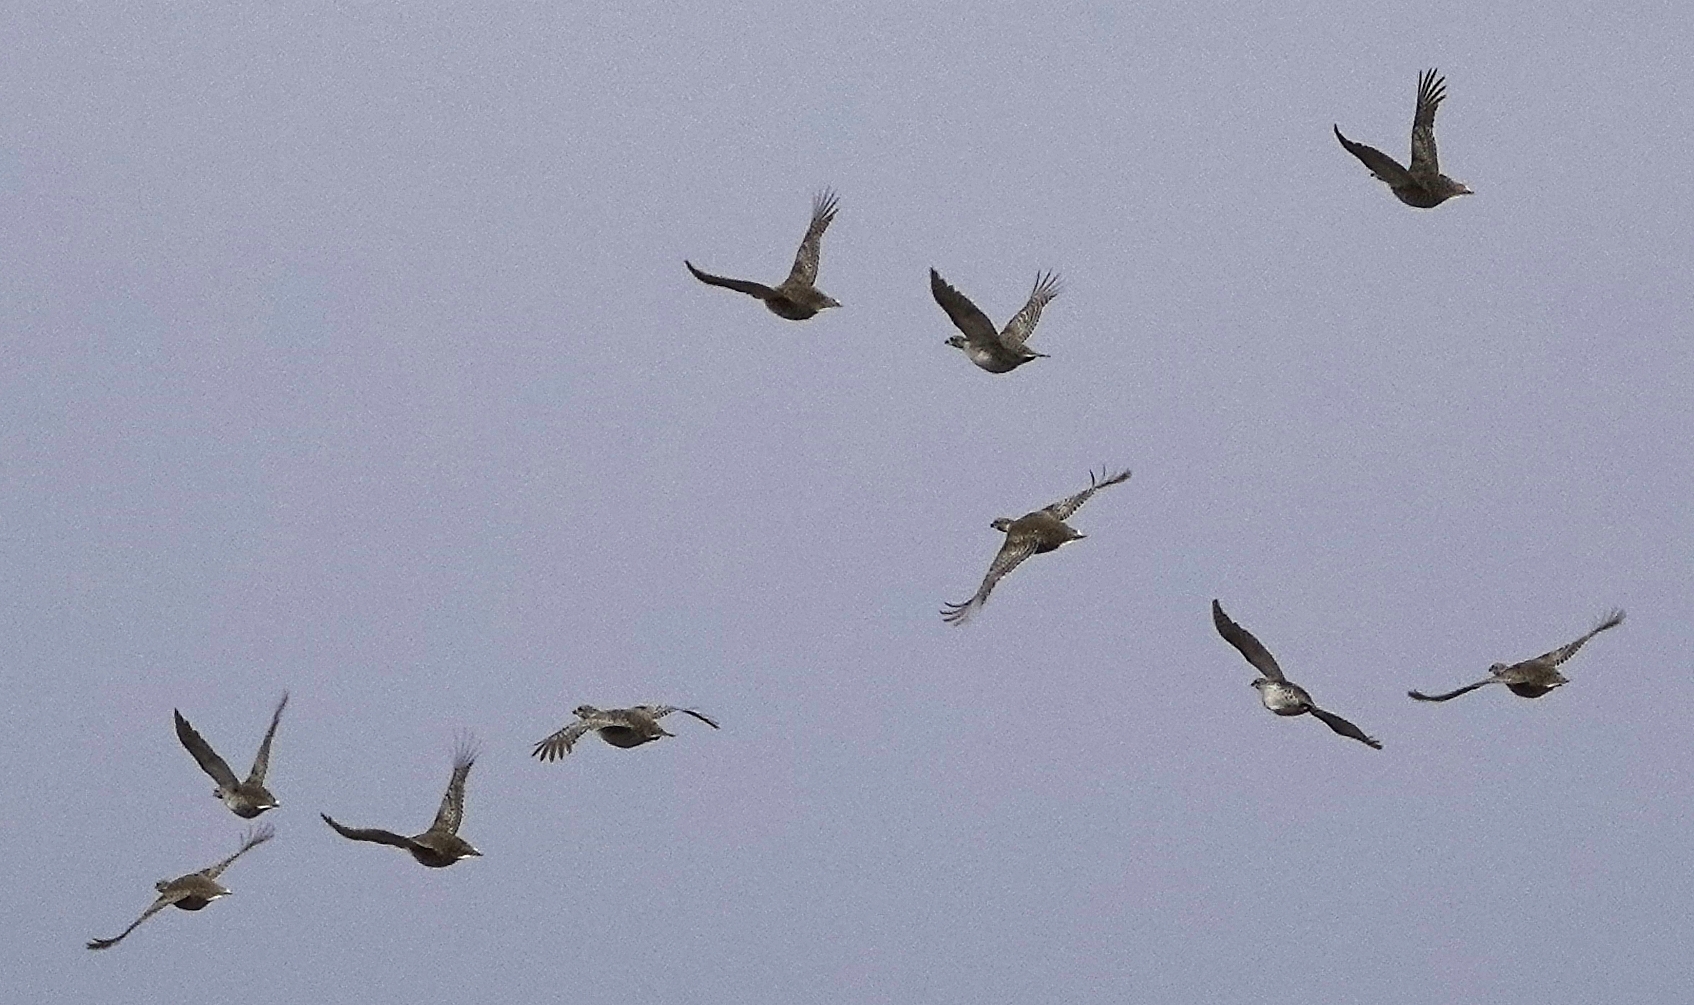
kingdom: Animalia
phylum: Chordata
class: Aves
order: Galliformes
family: Phasianidae
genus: Tympanuchus
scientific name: Tympanuchus phasianellus
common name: Sharp-tailed grouse
